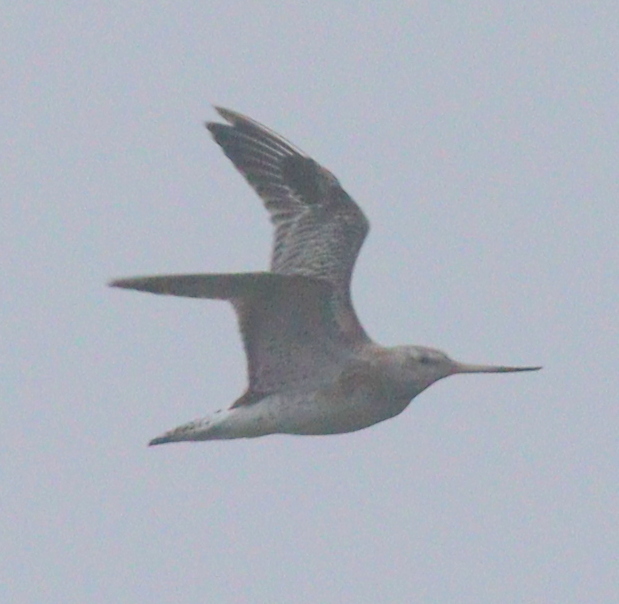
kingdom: Animalia
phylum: Chordata
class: Aves
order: Charadriiformes
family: Scolopacidae
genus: Limosa
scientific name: Limosa lapponica
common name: Bar-tailed godwit
